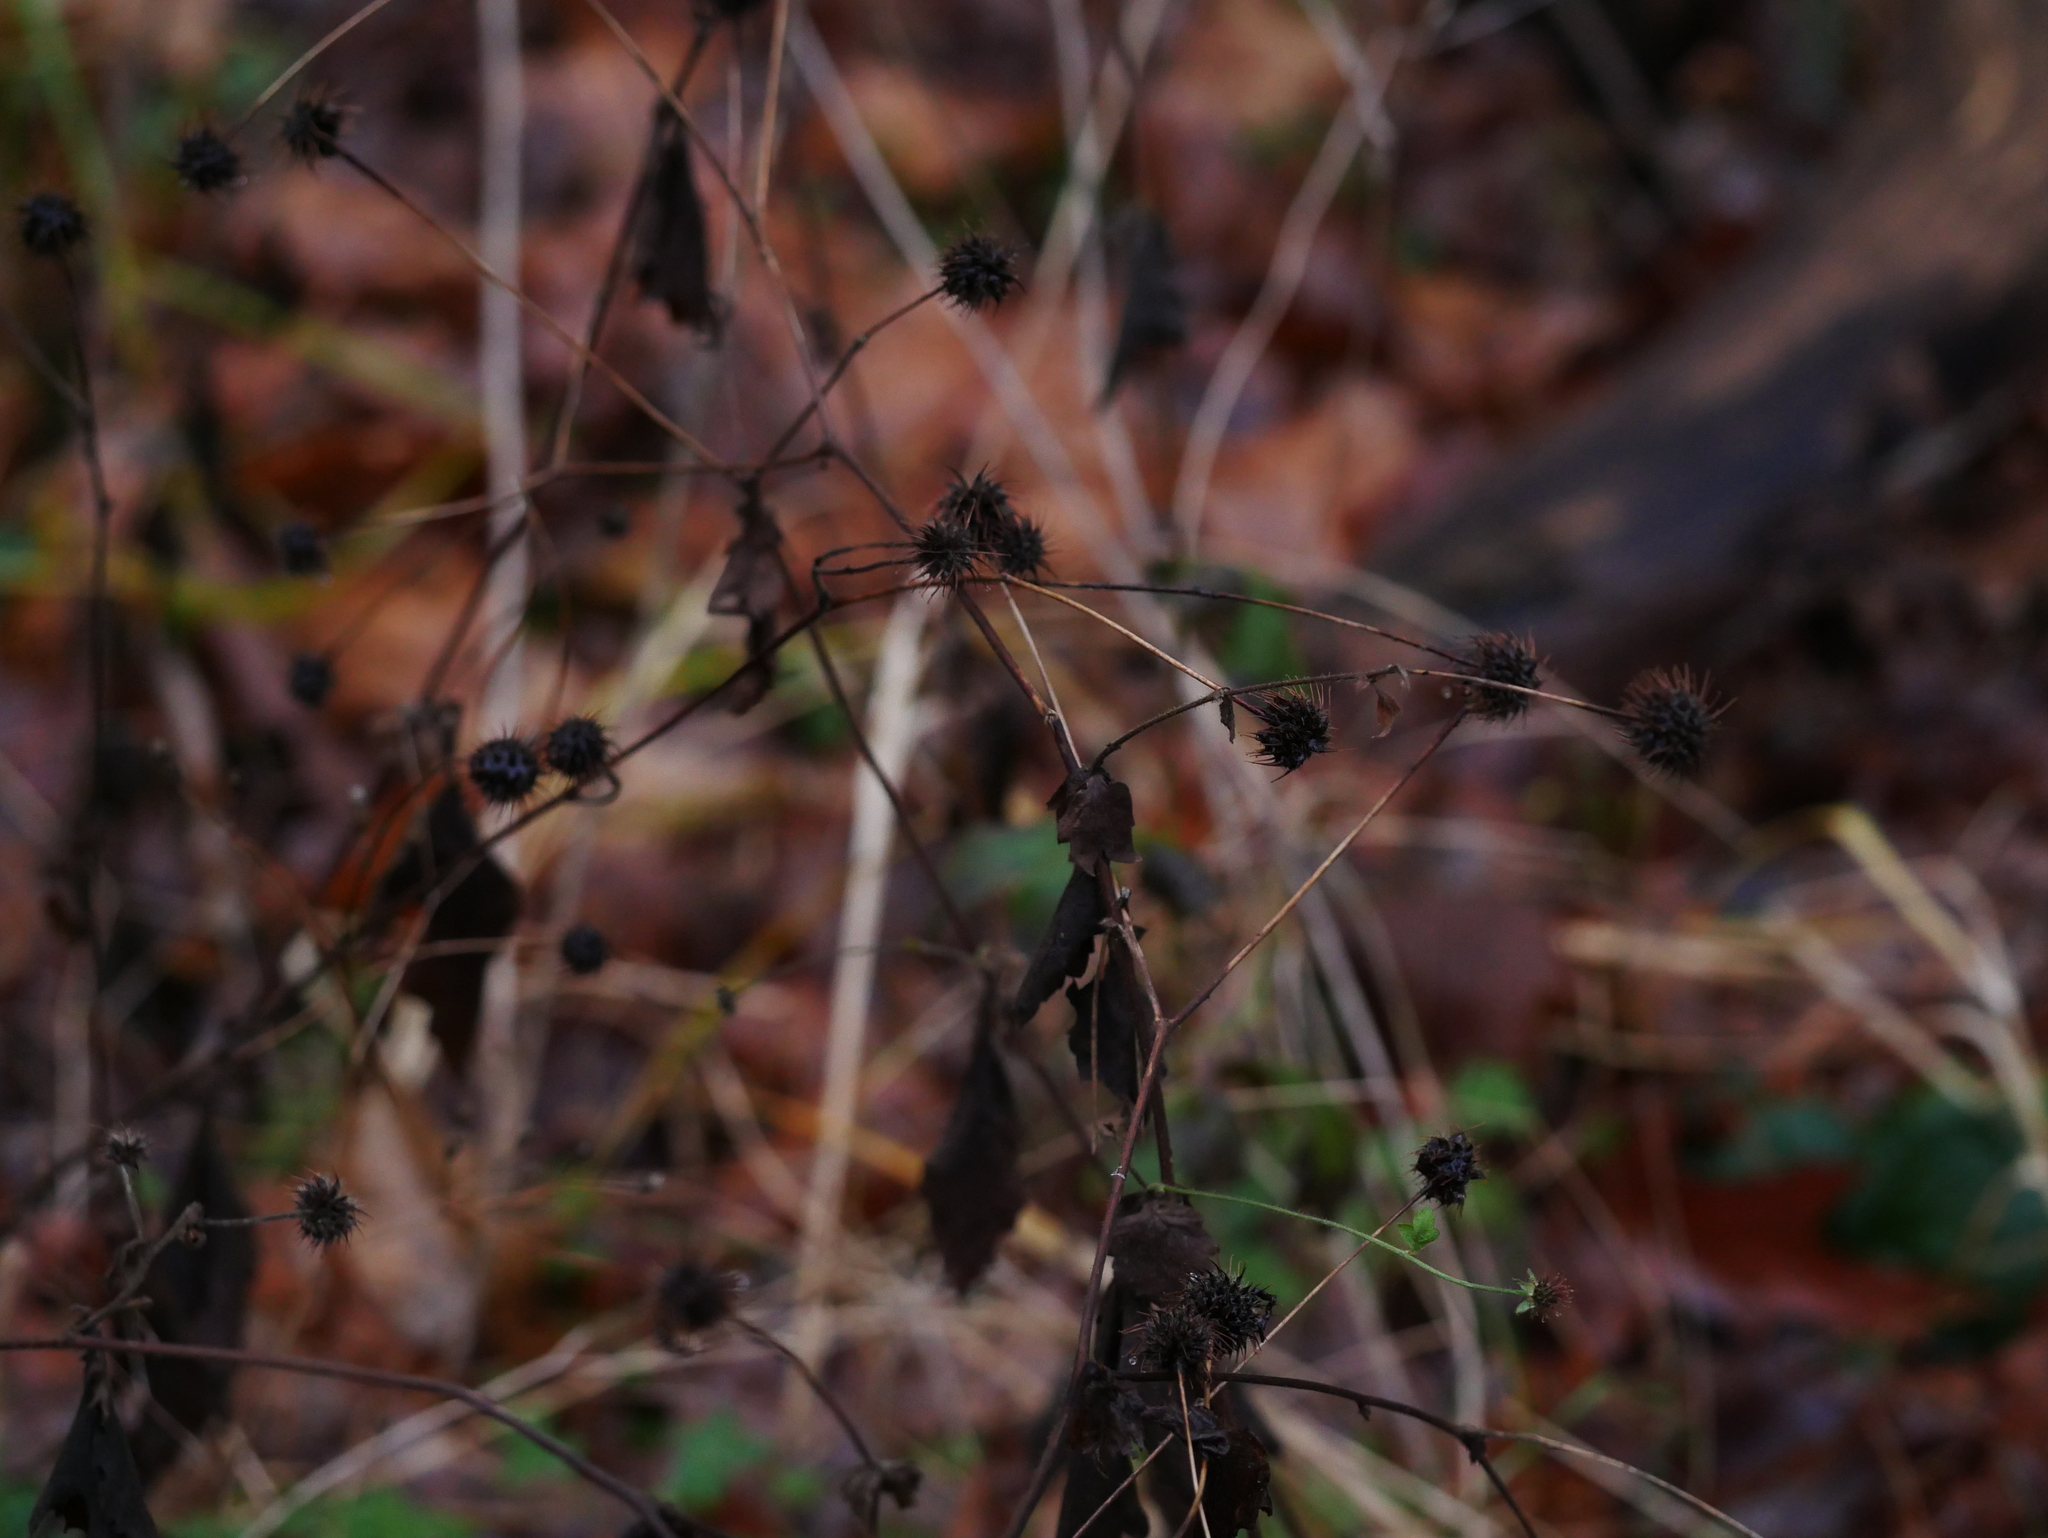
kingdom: Plantae
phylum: Tracheophyta
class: Magnoliopsida
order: Rosales
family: Rosaceae
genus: Geum
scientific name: Geum urbanum
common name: Wood avens
